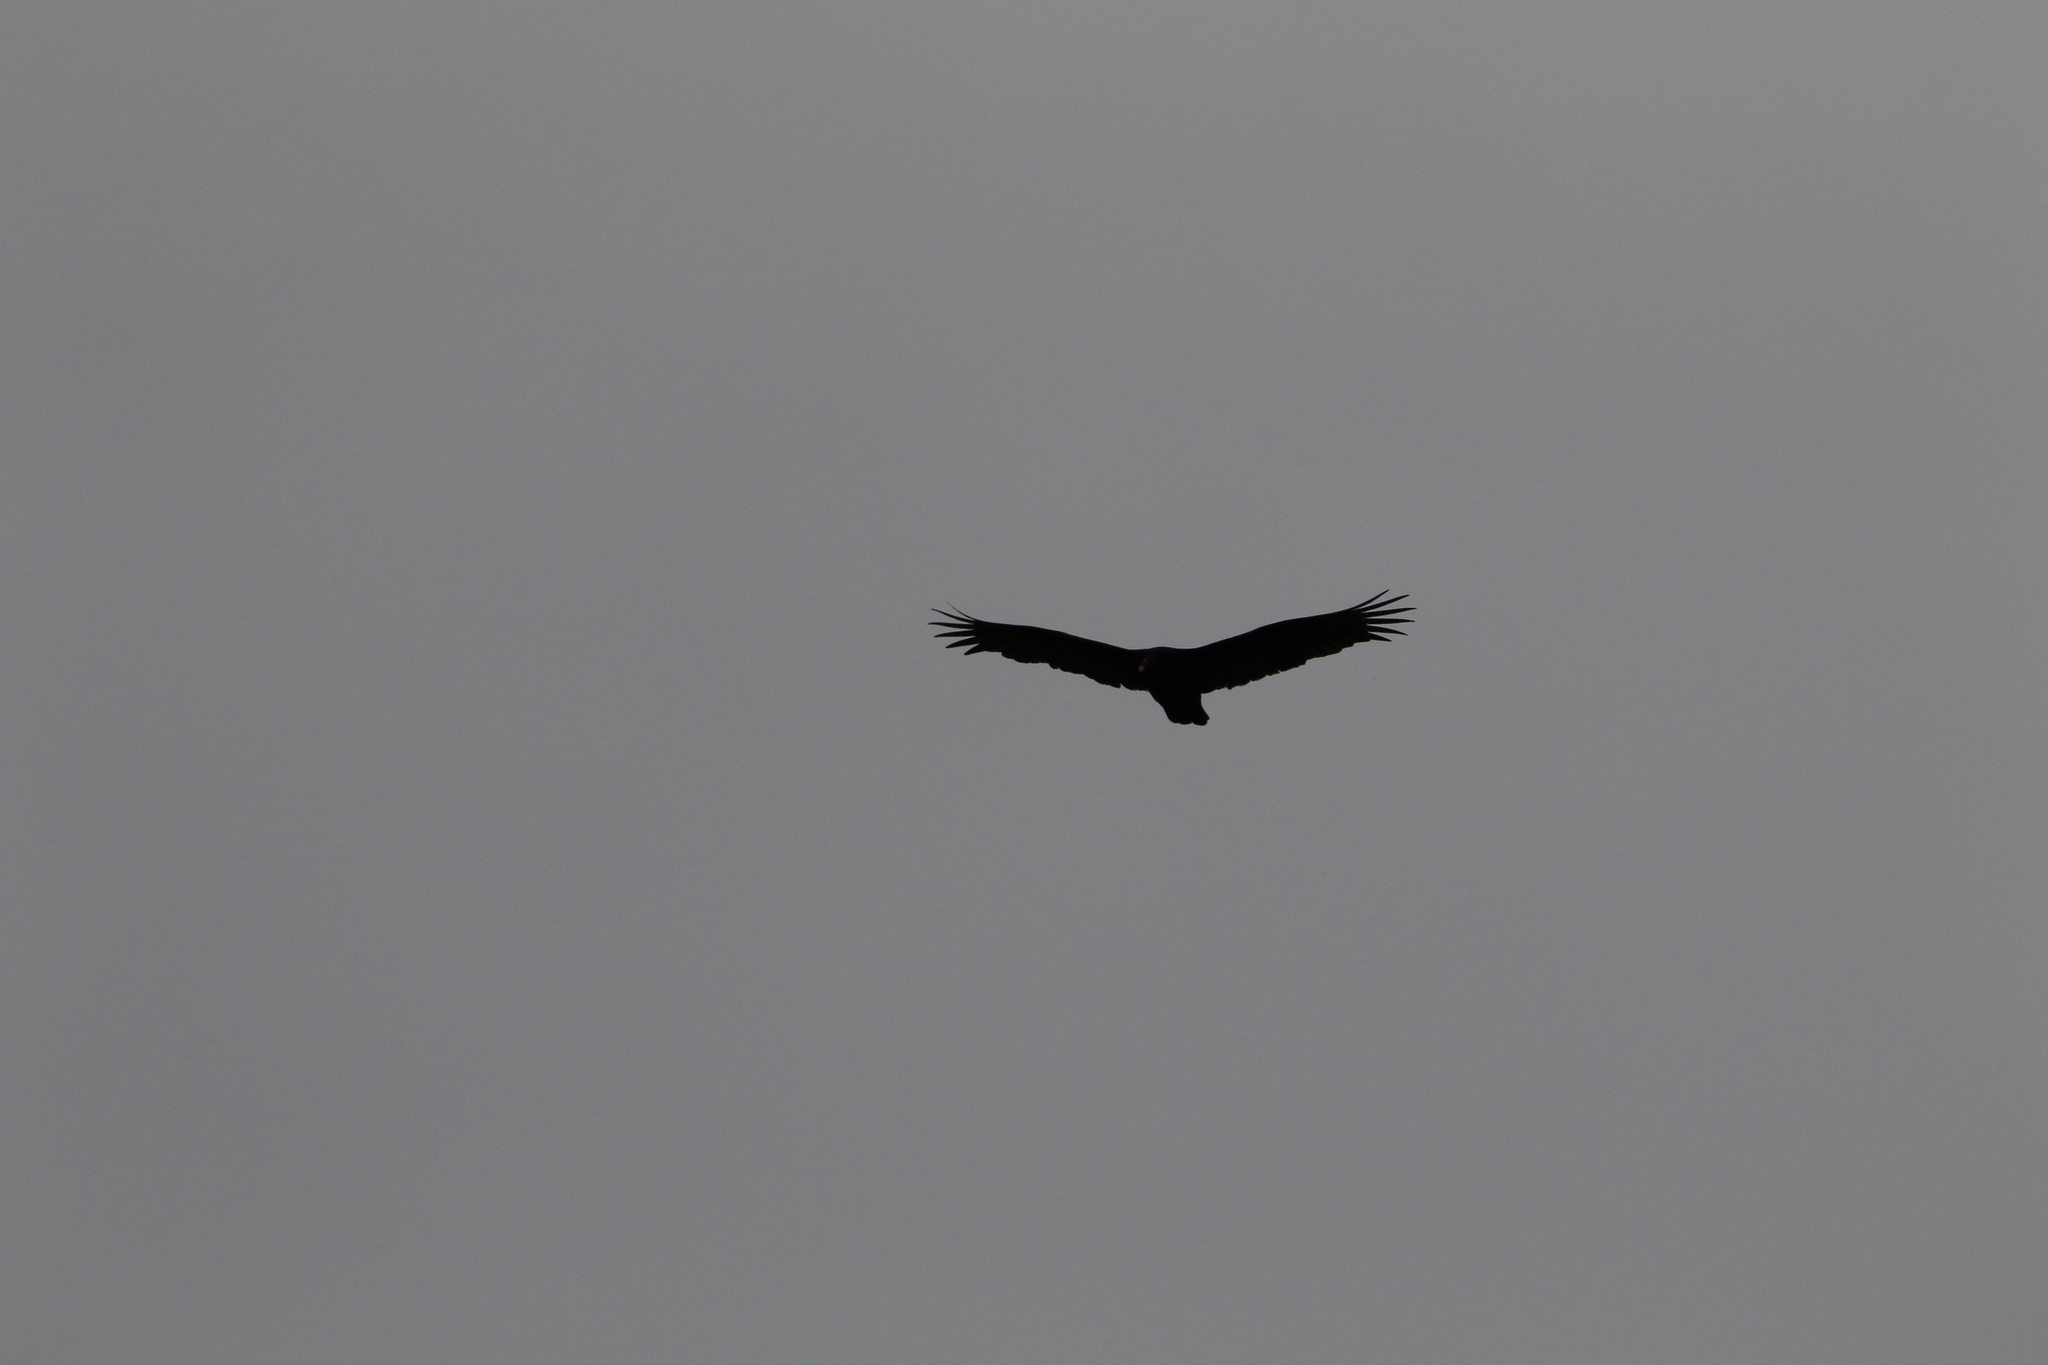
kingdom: Animalia
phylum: Chordata
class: Aves
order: Accipitriformes
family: Cathartidae
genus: Cathartes
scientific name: Cathartes aura
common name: Turkey vulture
